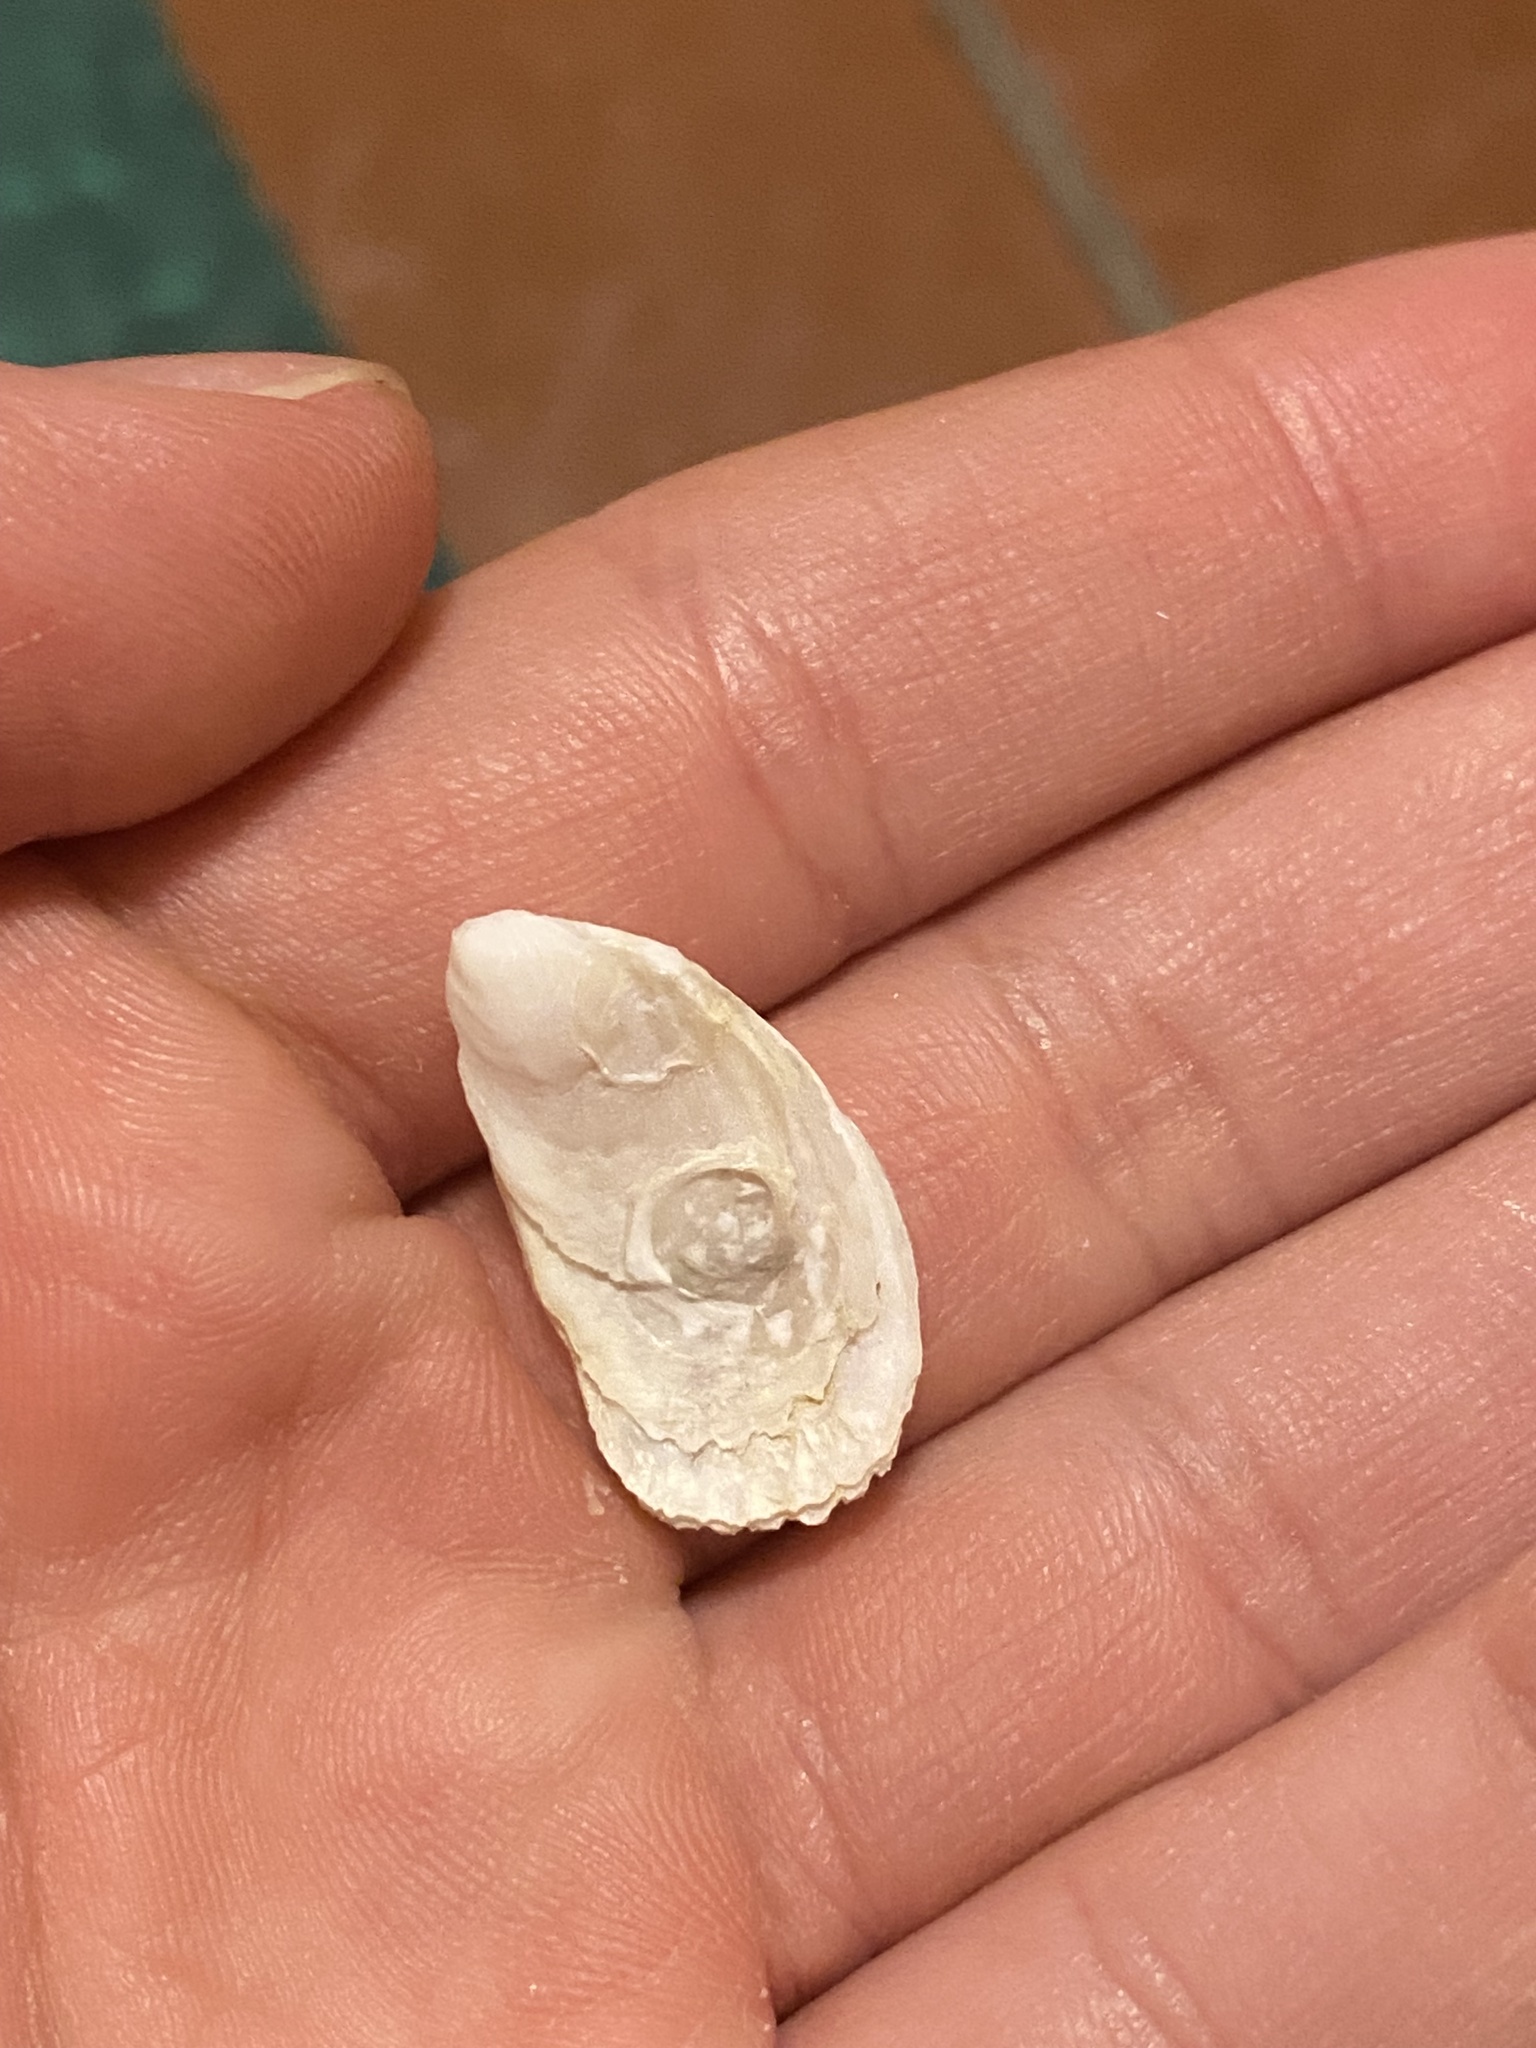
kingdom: Animalia
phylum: Mollusca
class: Gastropoda
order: Littorinimorpha
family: Calyptraeidae
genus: Crepidula
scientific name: Crepidula
